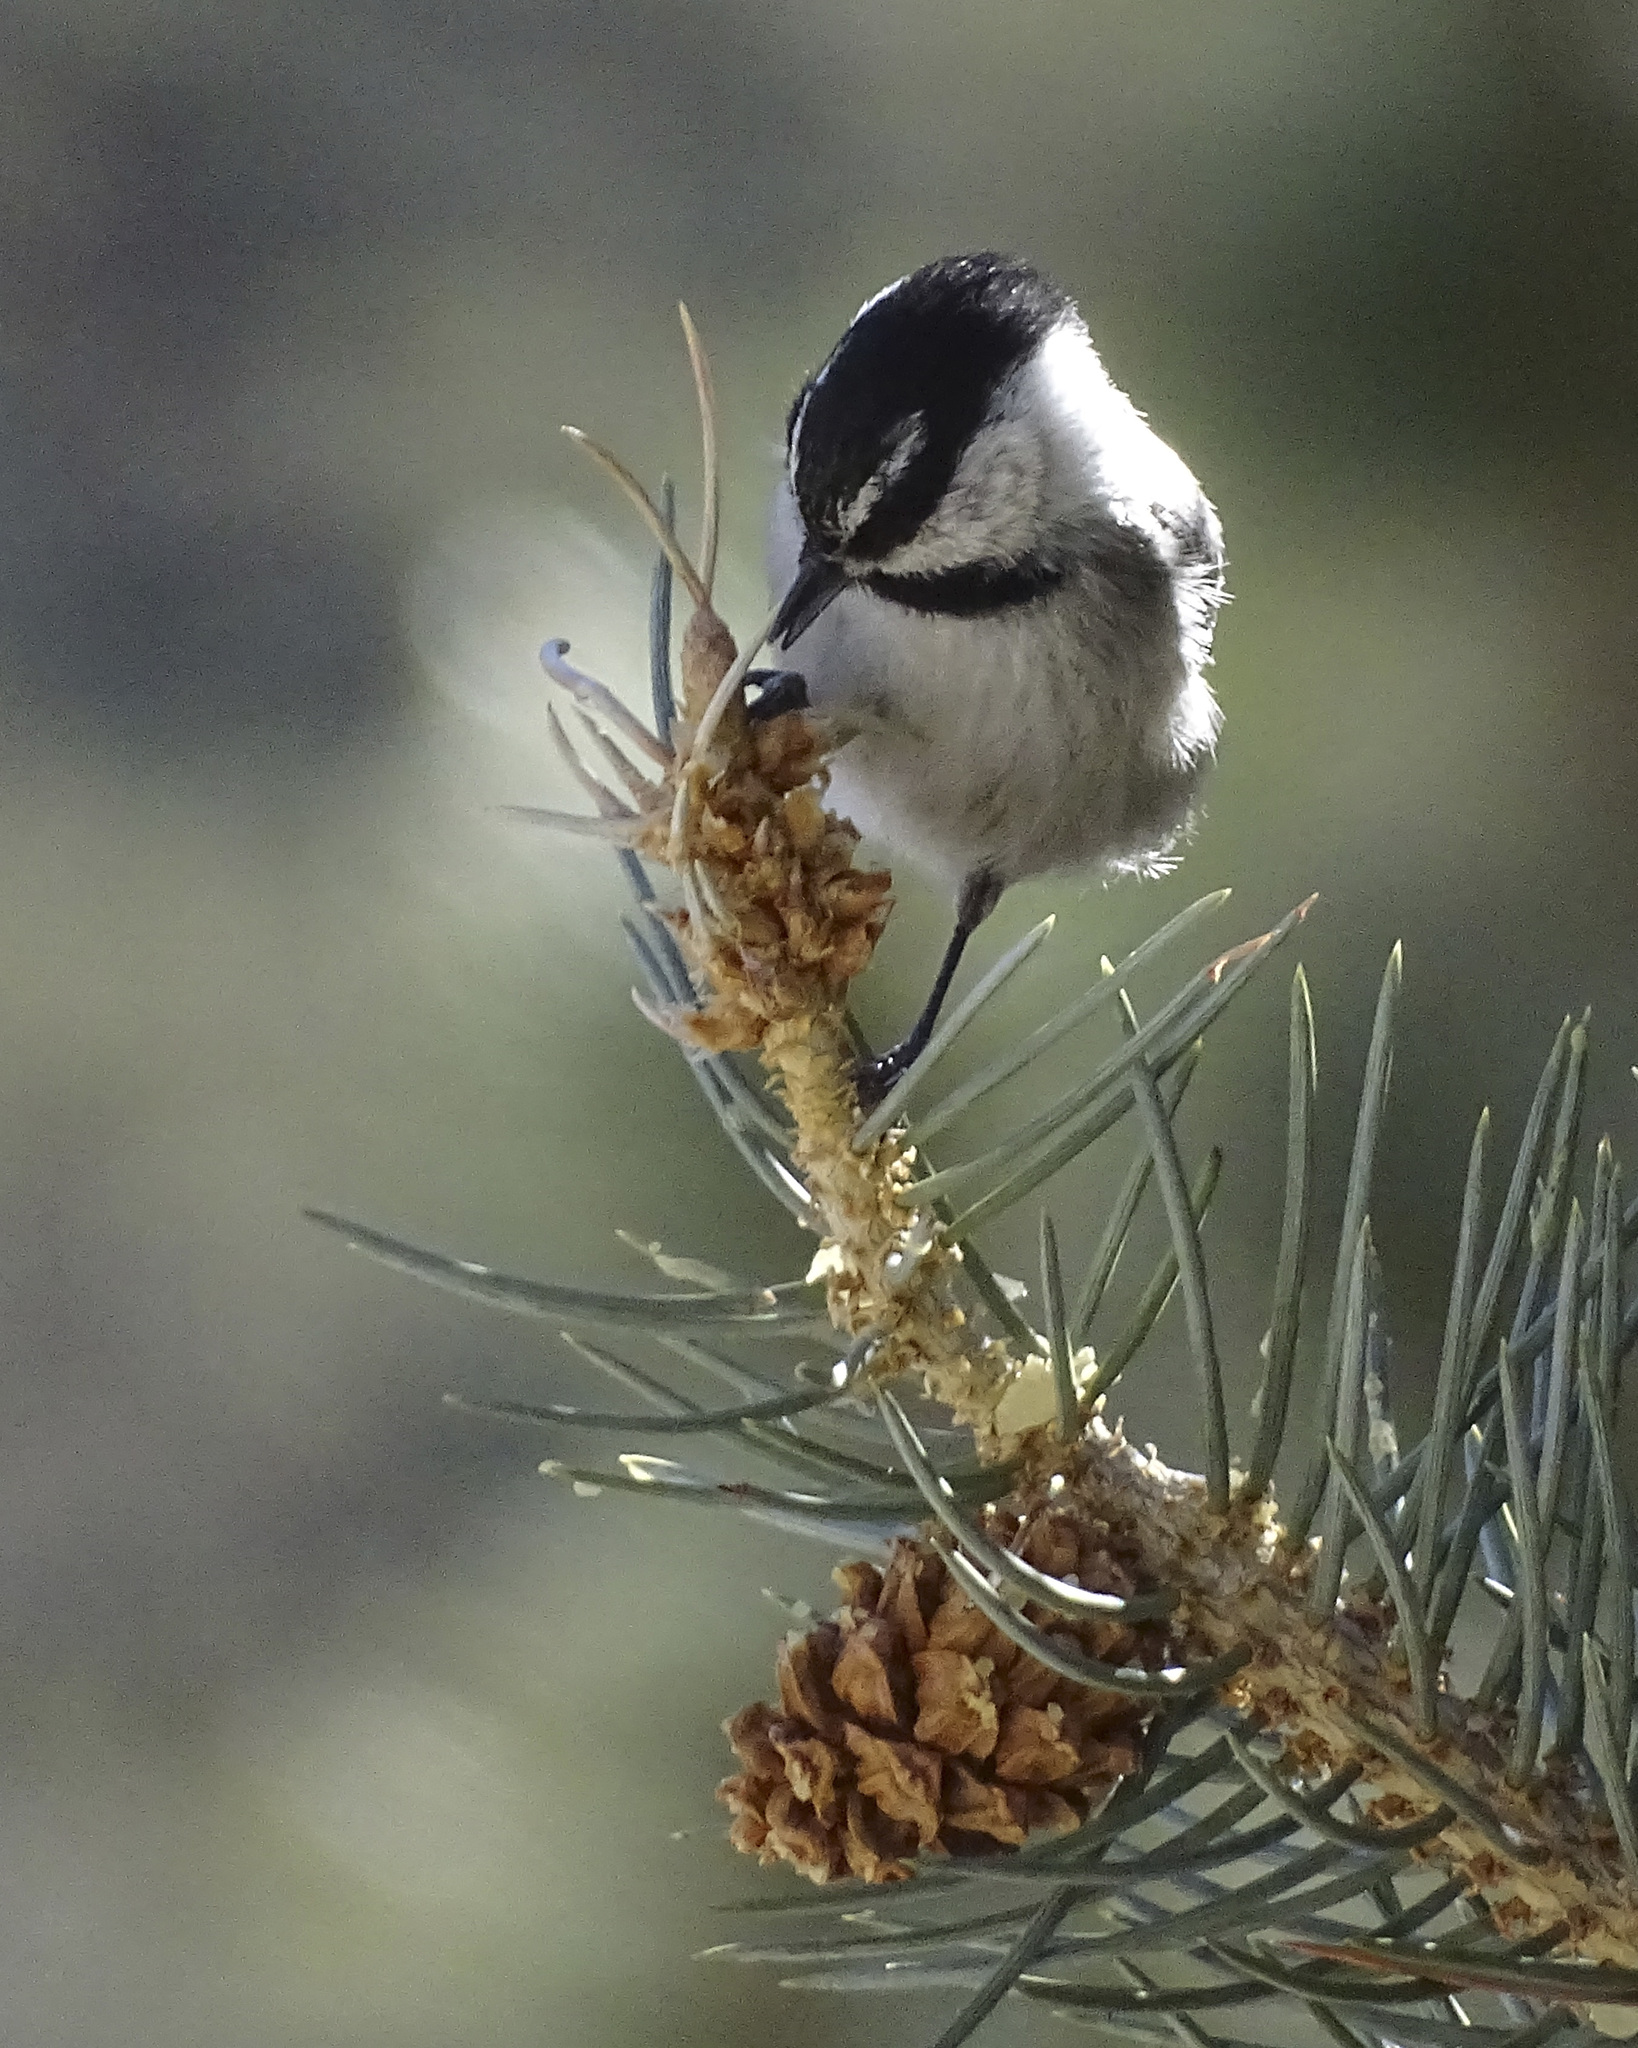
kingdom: Animalia
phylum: Chordata
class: Aves
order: Passeriformes
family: Paridae
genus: Poecile
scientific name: Poecile gambeli
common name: Mountain chickadee
